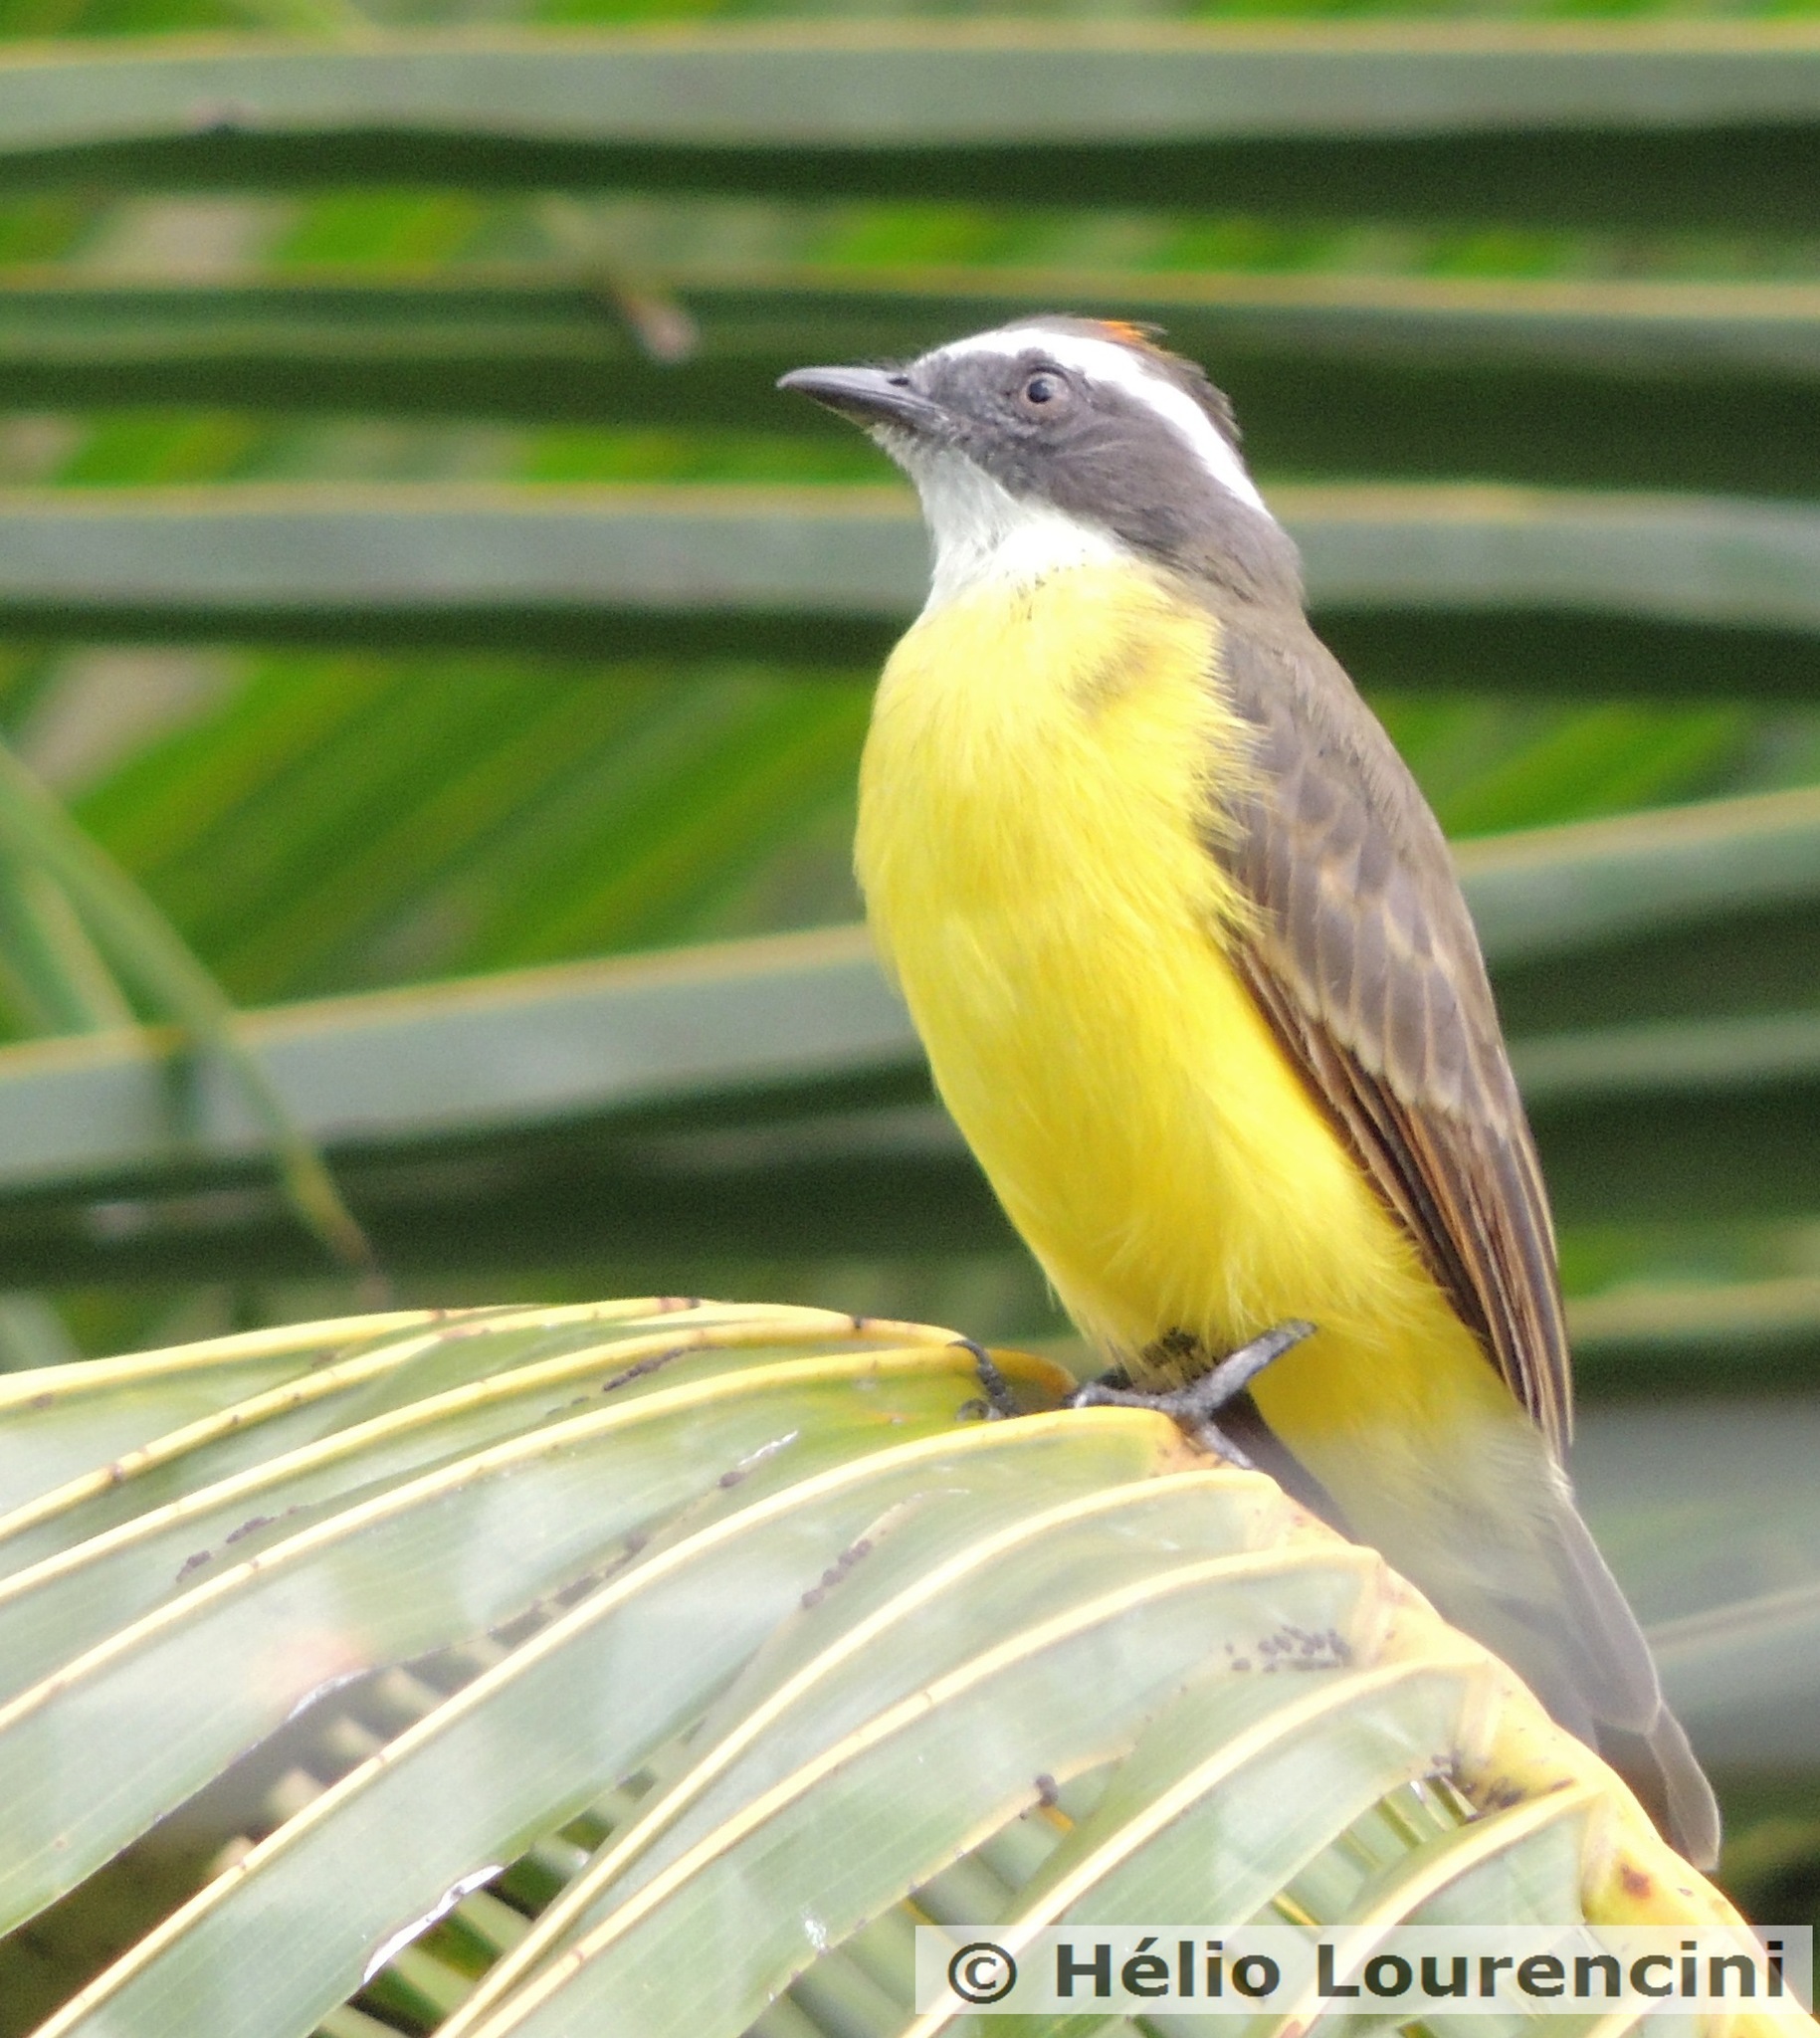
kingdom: Animalia
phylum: Chordata
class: Aves
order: Passeriformes
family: Tyrannidae
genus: Myiozetetes
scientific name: Myiozetetes similis
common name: Social flycatcher
